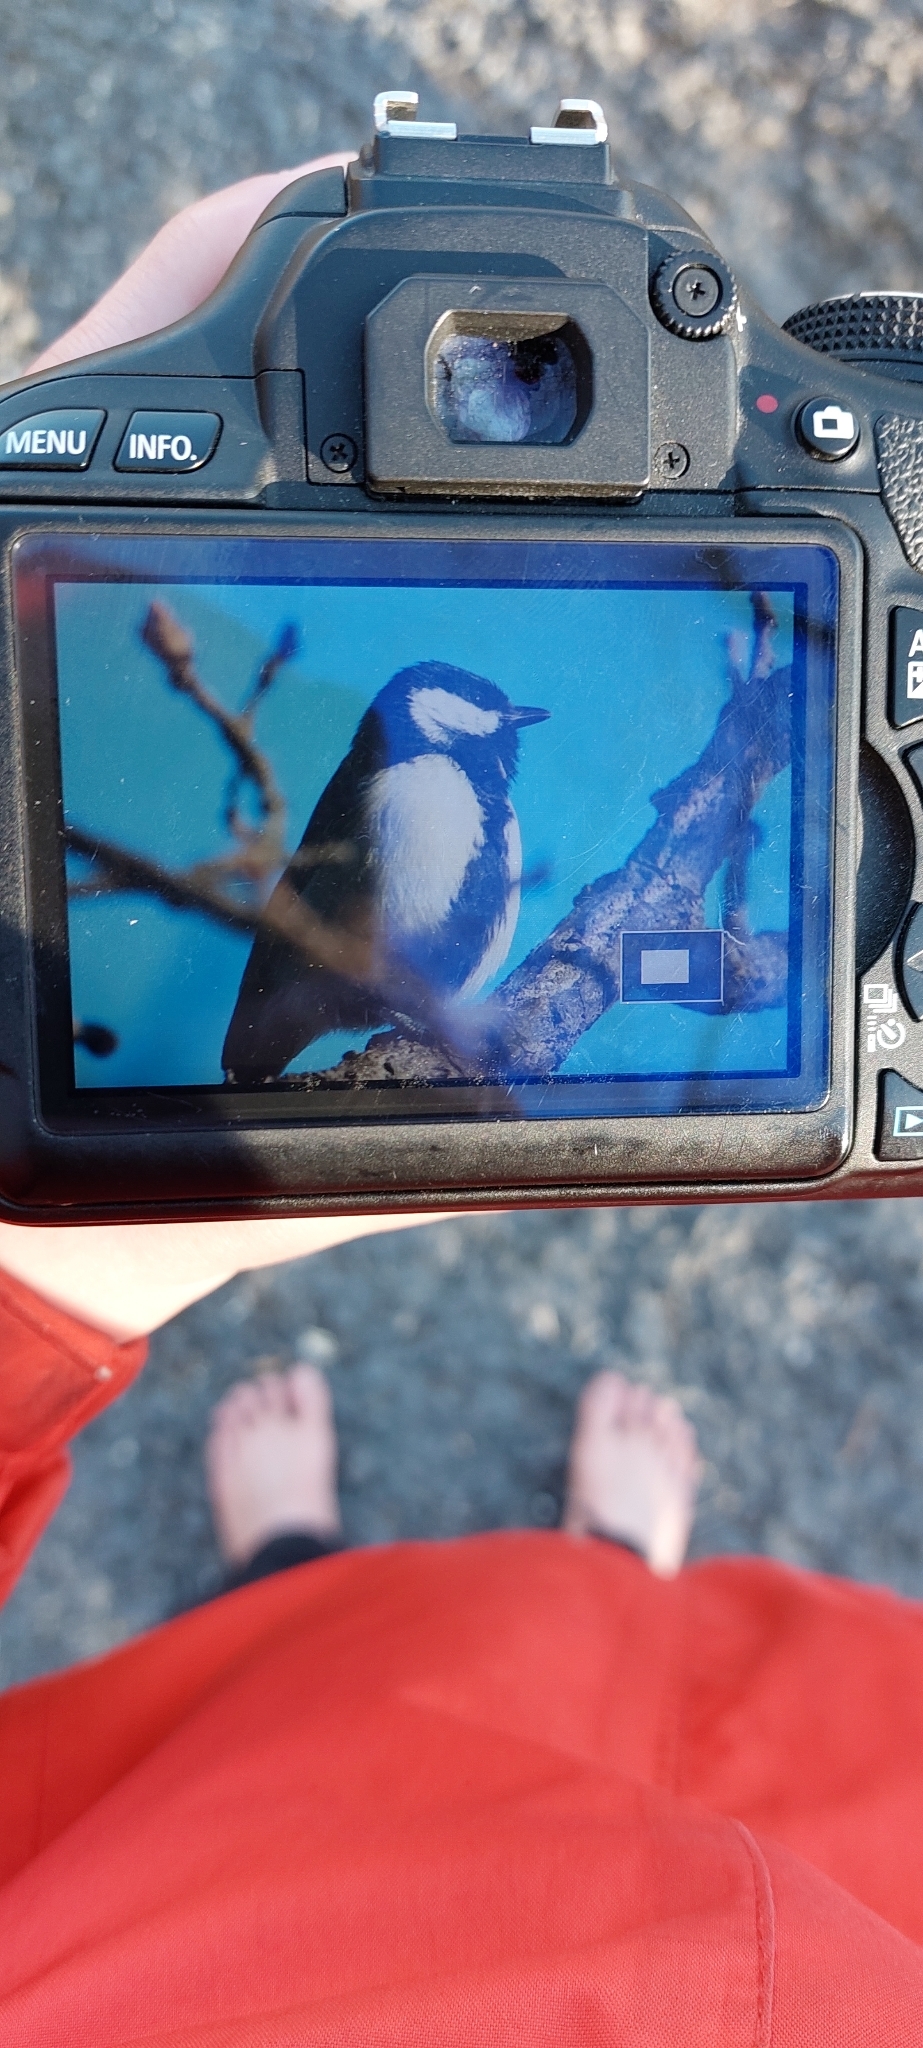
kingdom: Animalia
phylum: Chordata
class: Aves
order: Passeriformes
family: Paridae
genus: Parus
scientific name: Parus major
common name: Great tit
